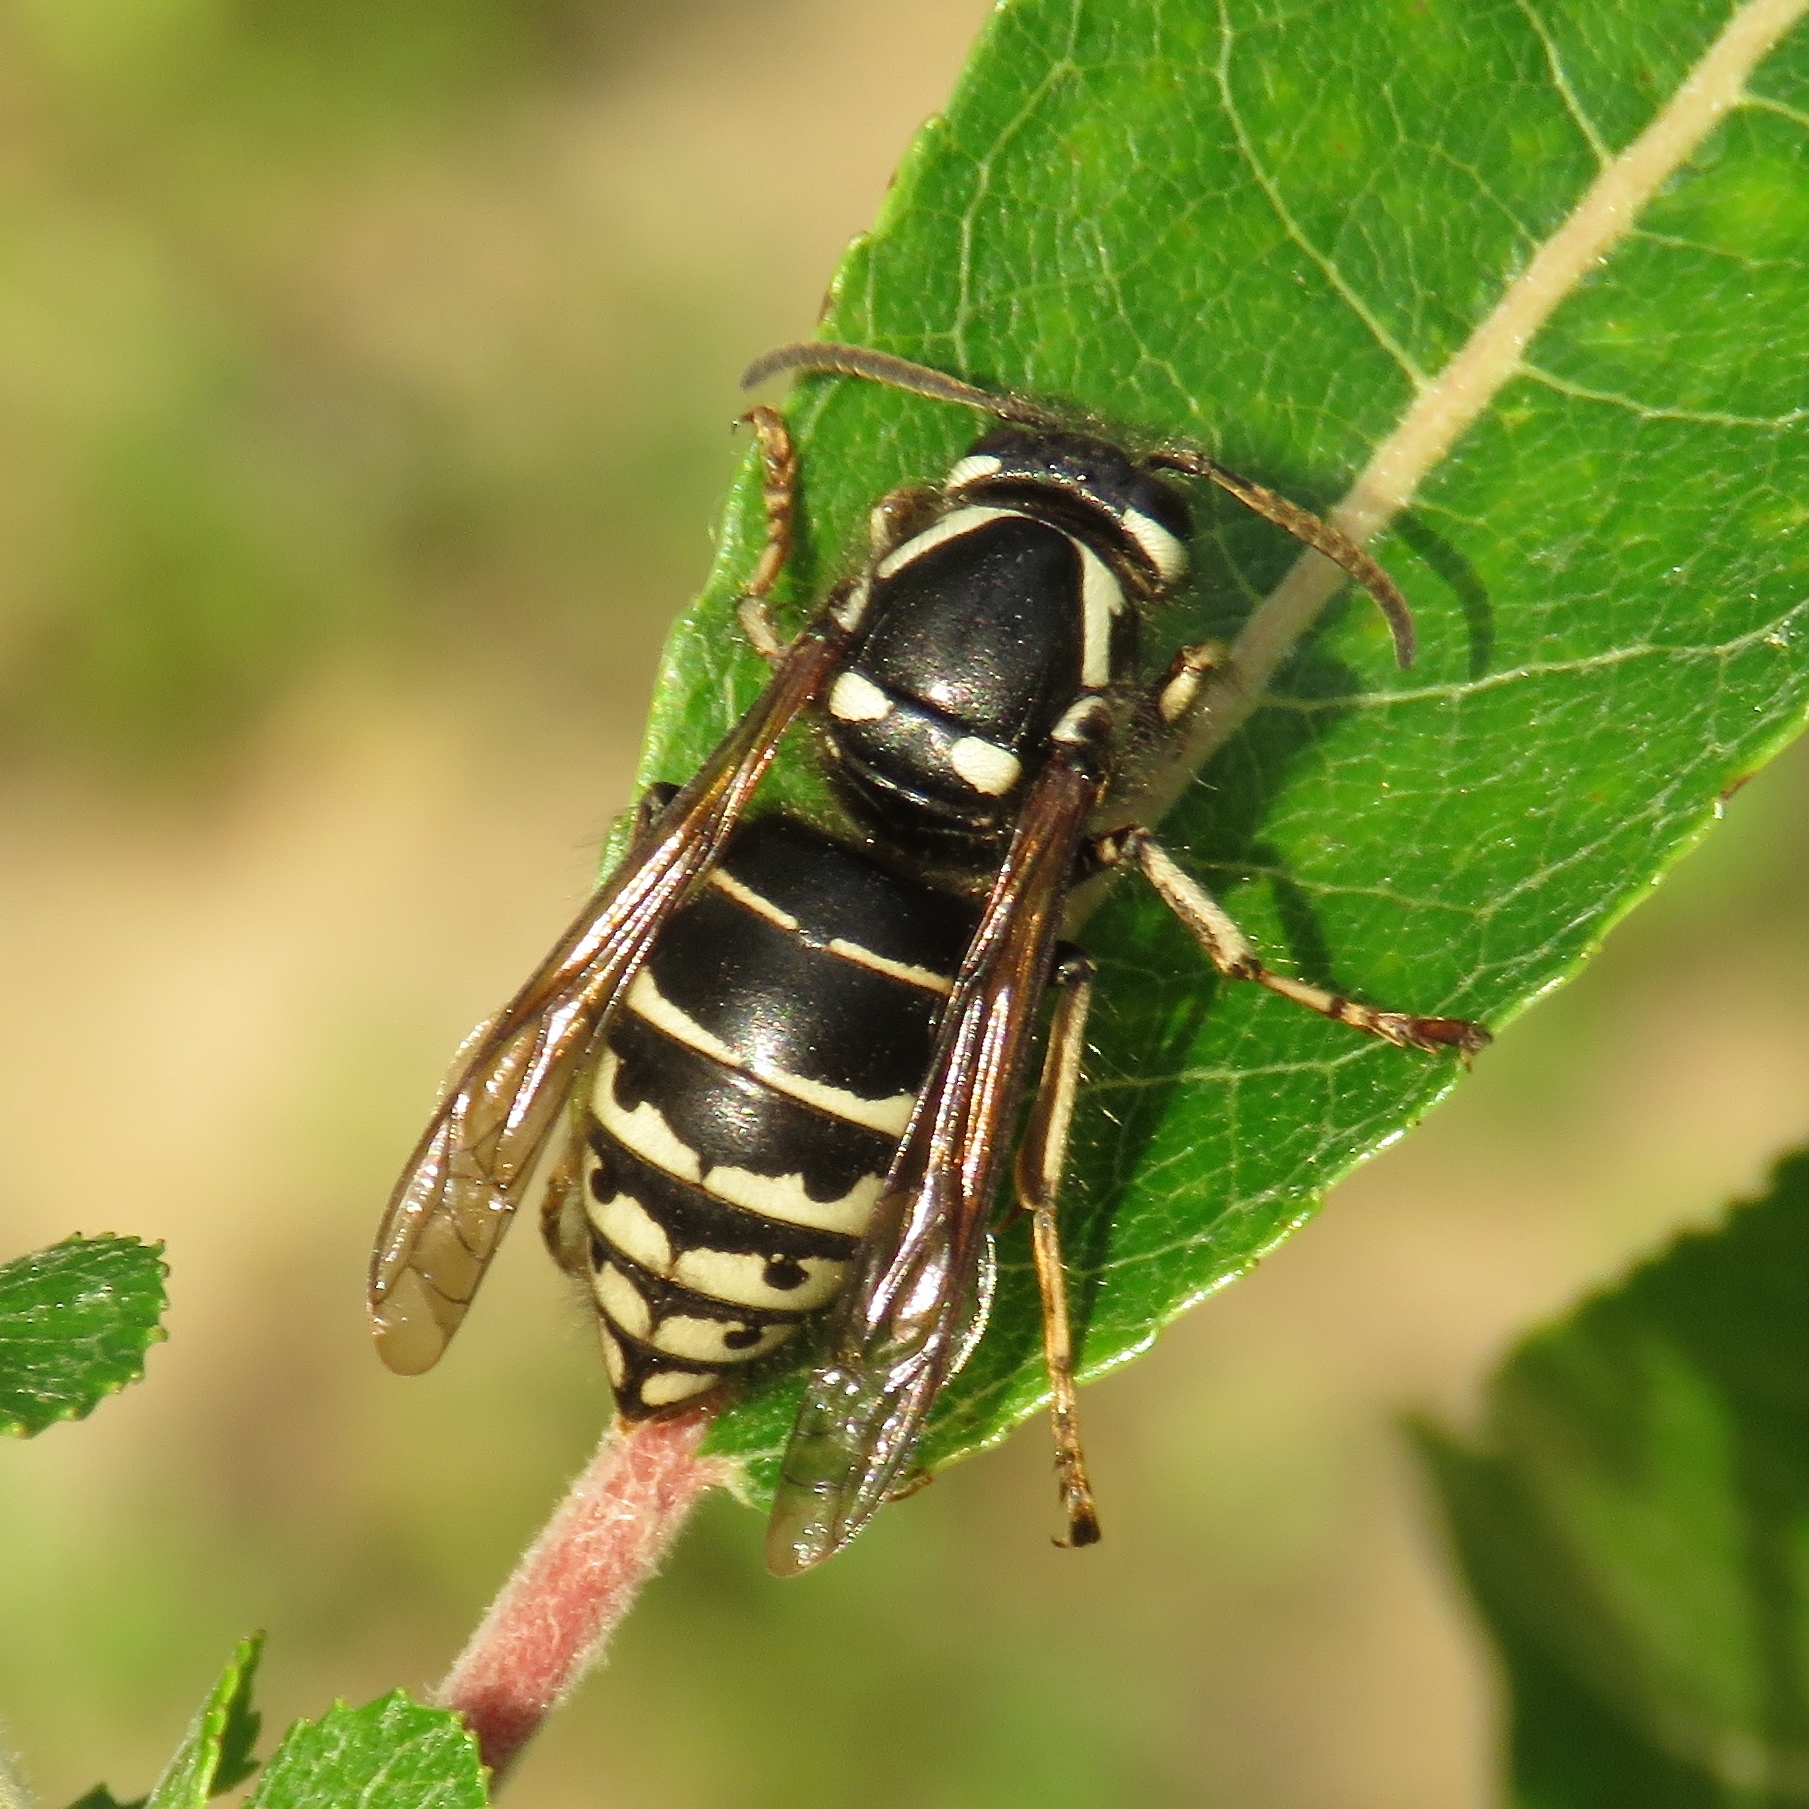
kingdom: Animalia
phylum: Arthropoda
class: Insecta
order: Hymenoptera
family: Vespidae
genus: Dolichovespula
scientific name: Dolichovespula adulterina
